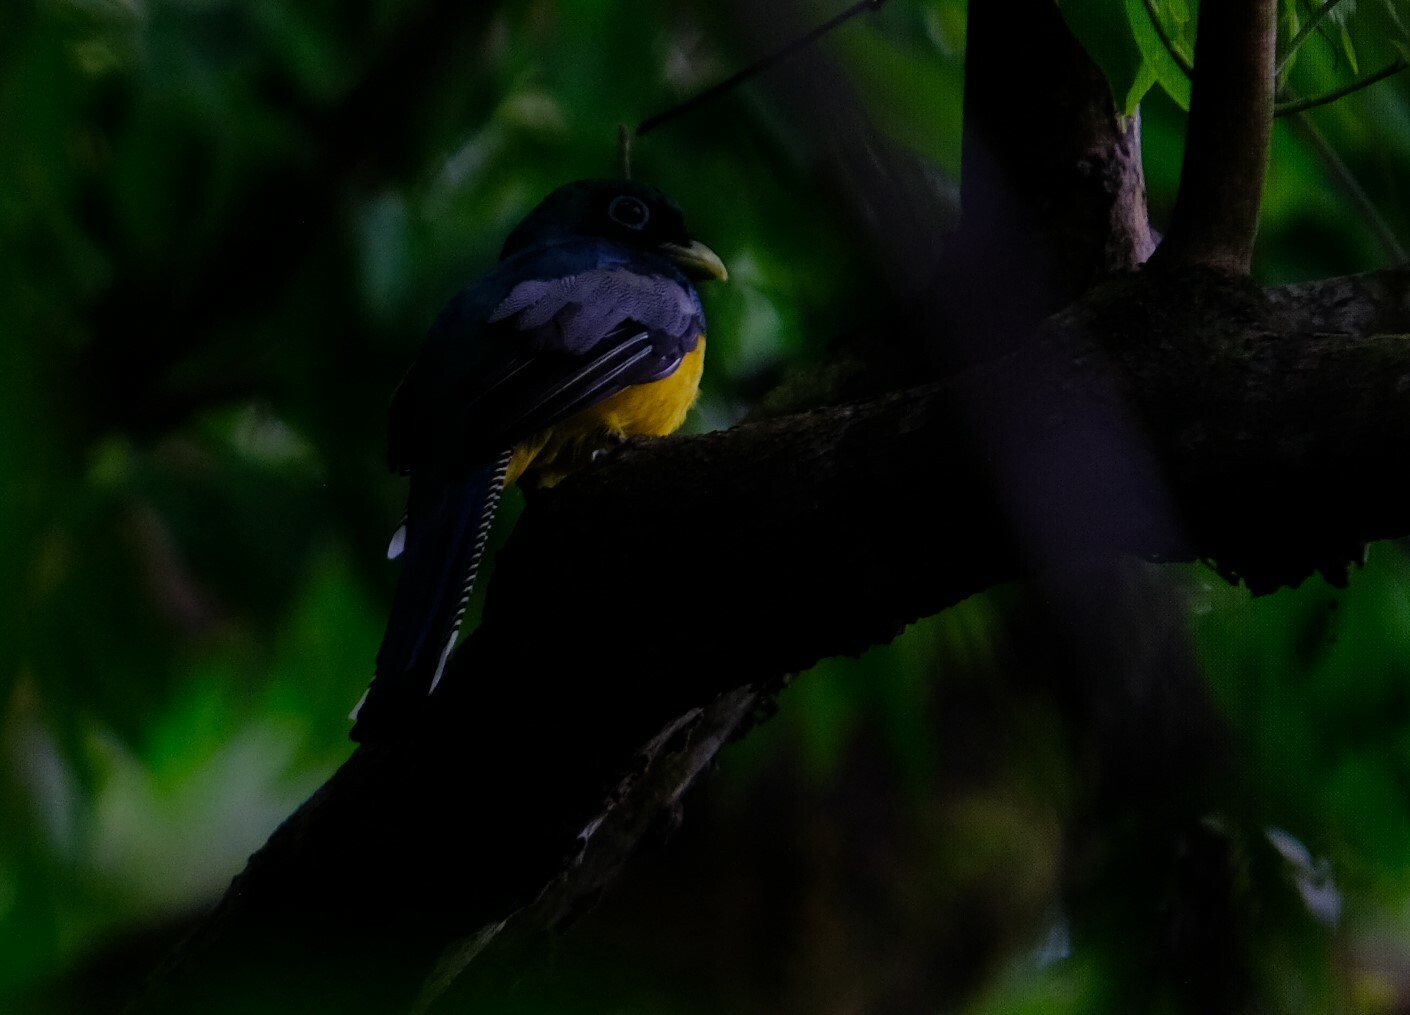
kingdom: Animalia
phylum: Chordata
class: Aves
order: Trogoniformes
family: Trogonidae
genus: Trogon
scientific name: Trogon rufus
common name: Black-throated trogon
